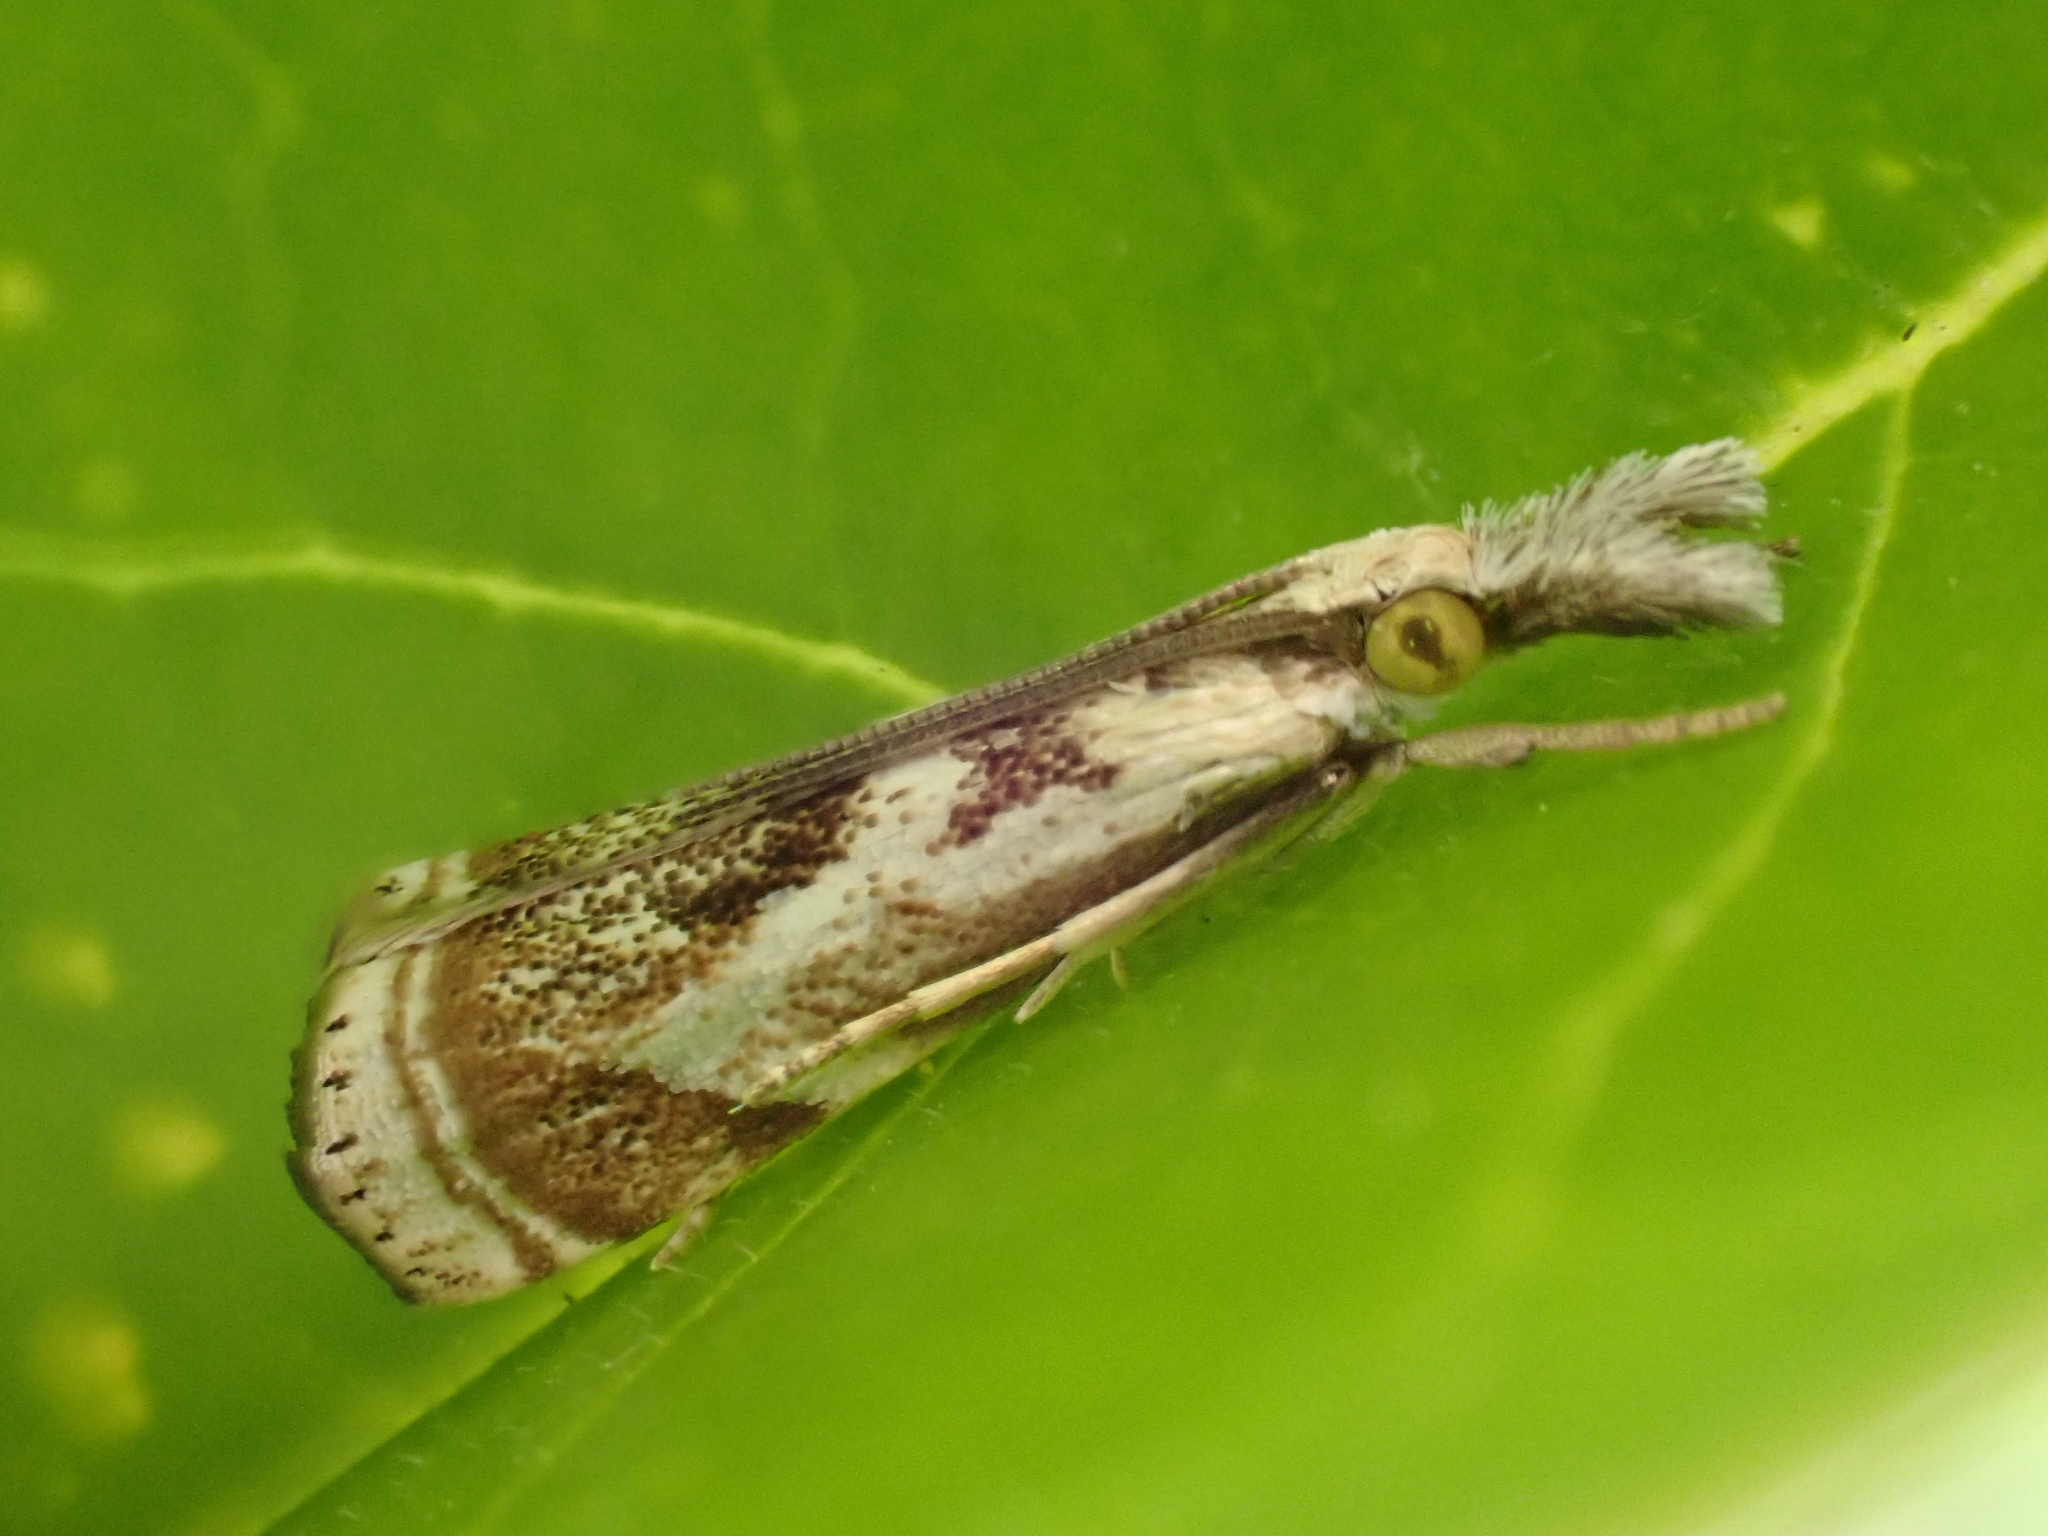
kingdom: Animalia
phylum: Arthropoda
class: Insecta
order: Lepidoptera
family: Crambidae
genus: Microcrambus
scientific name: Microcrambus elegans
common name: Elegant grass-veneer
